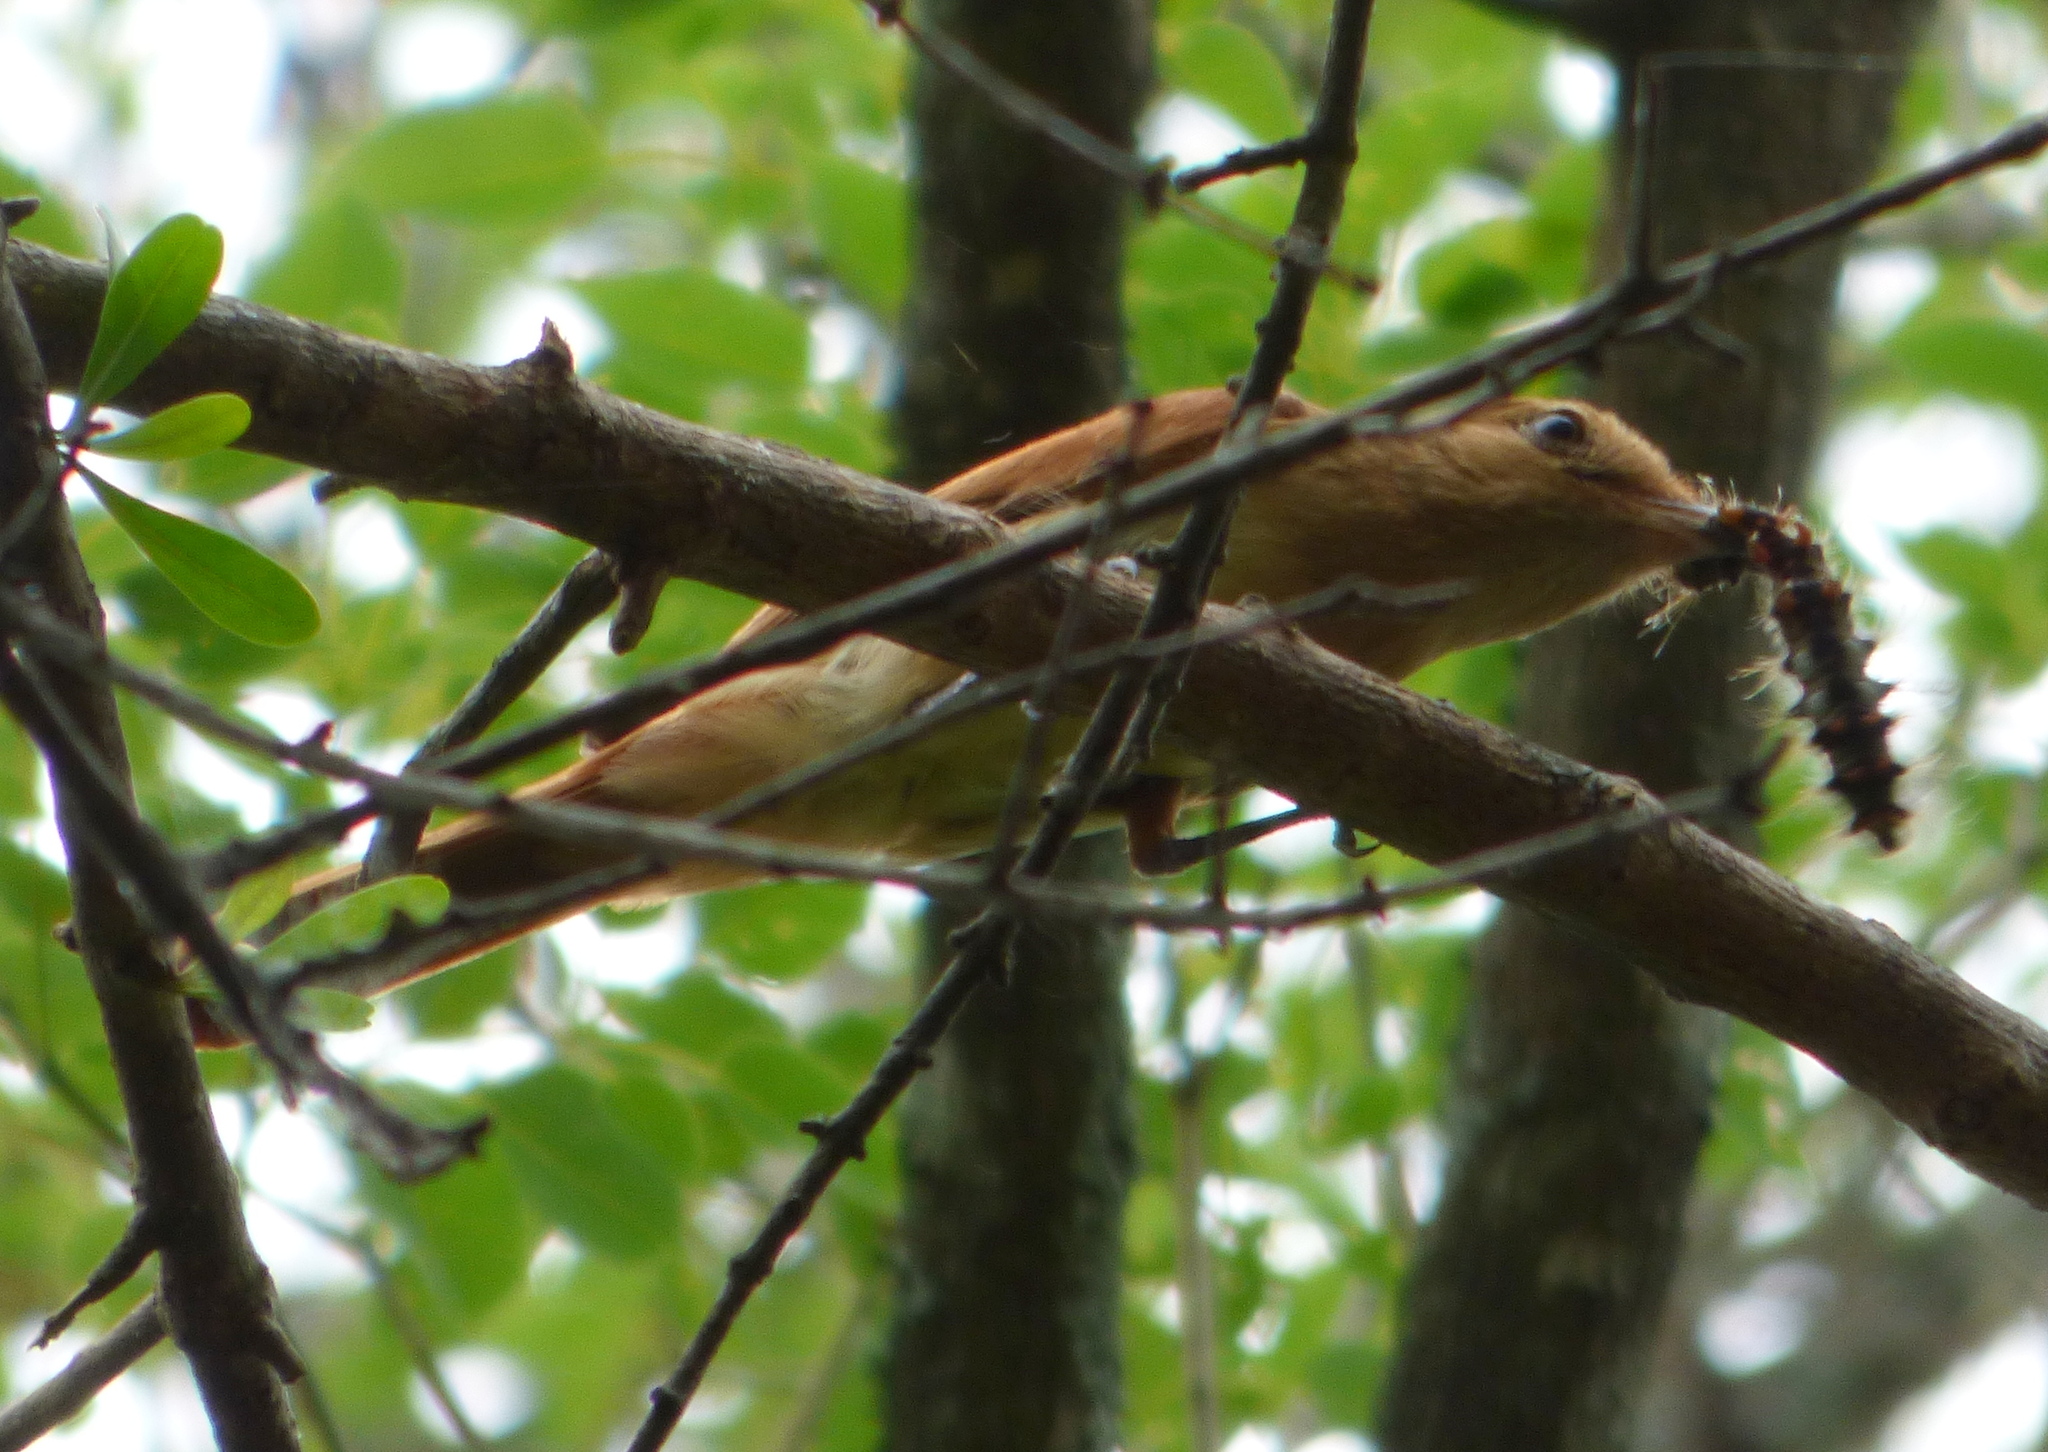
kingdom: Animalia
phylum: Chordata
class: Aves
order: Passeriformes
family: Tyrannidae
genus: Casiornis
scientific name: Casiornis rufus
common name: Rufous casiornis
